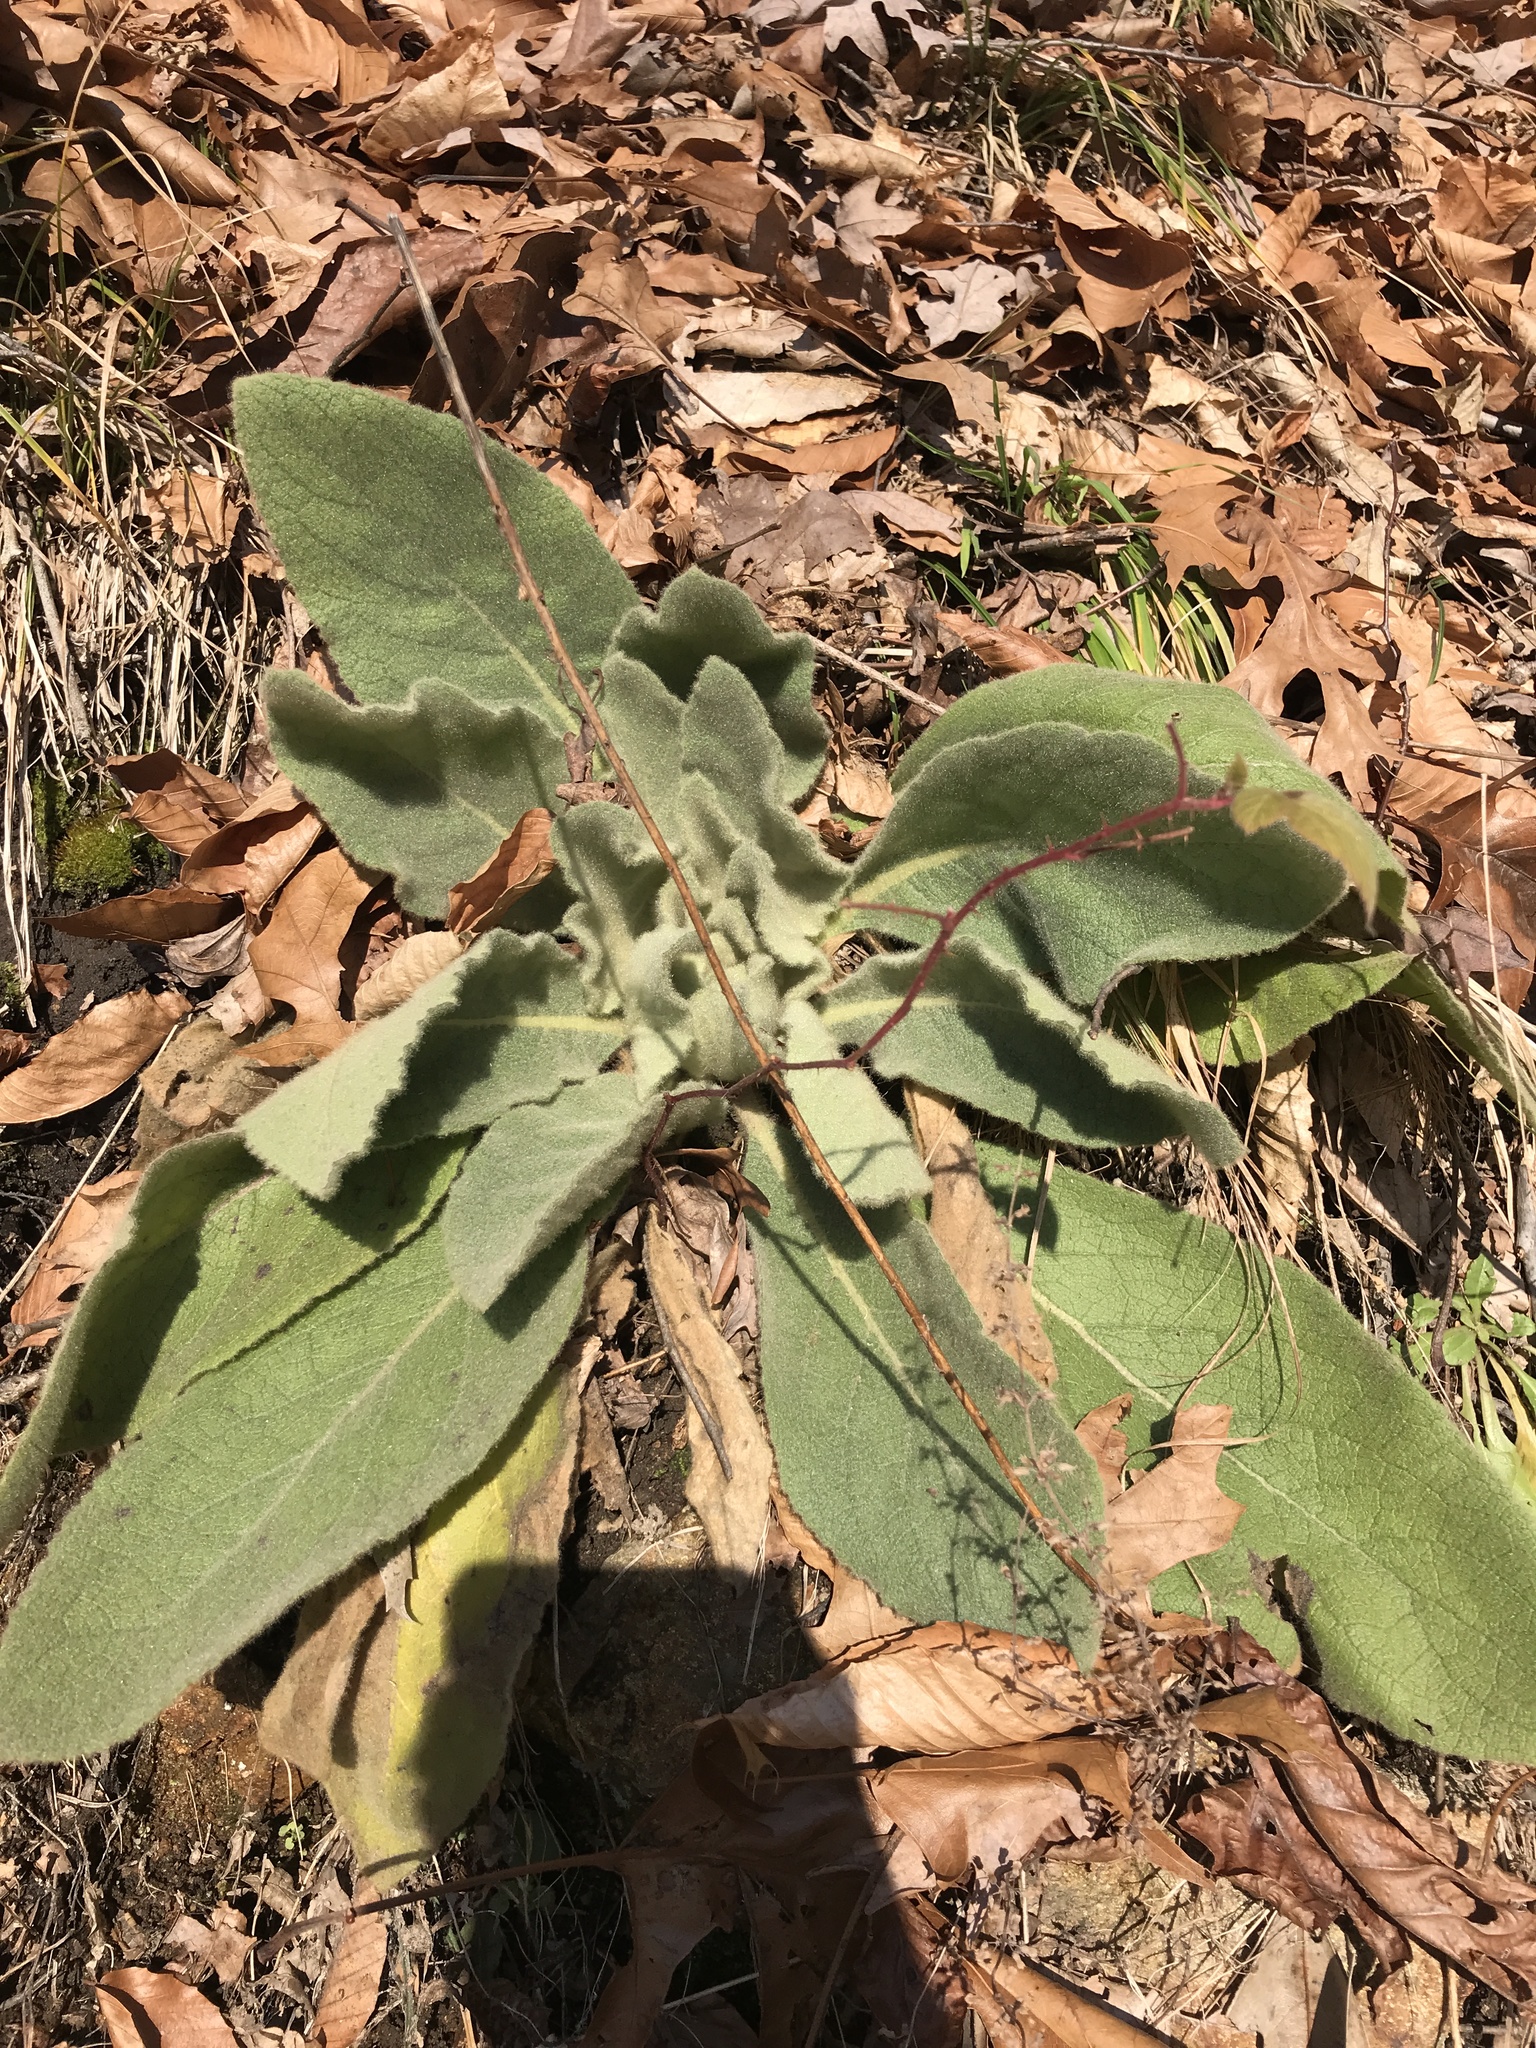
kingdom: Plantae
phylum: Tracheophyta
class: Magnoliopsida
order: Lamiales
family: Scrophulariaceae
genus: Verbascum
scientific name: Verbascum thapsus
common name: Common mullein
